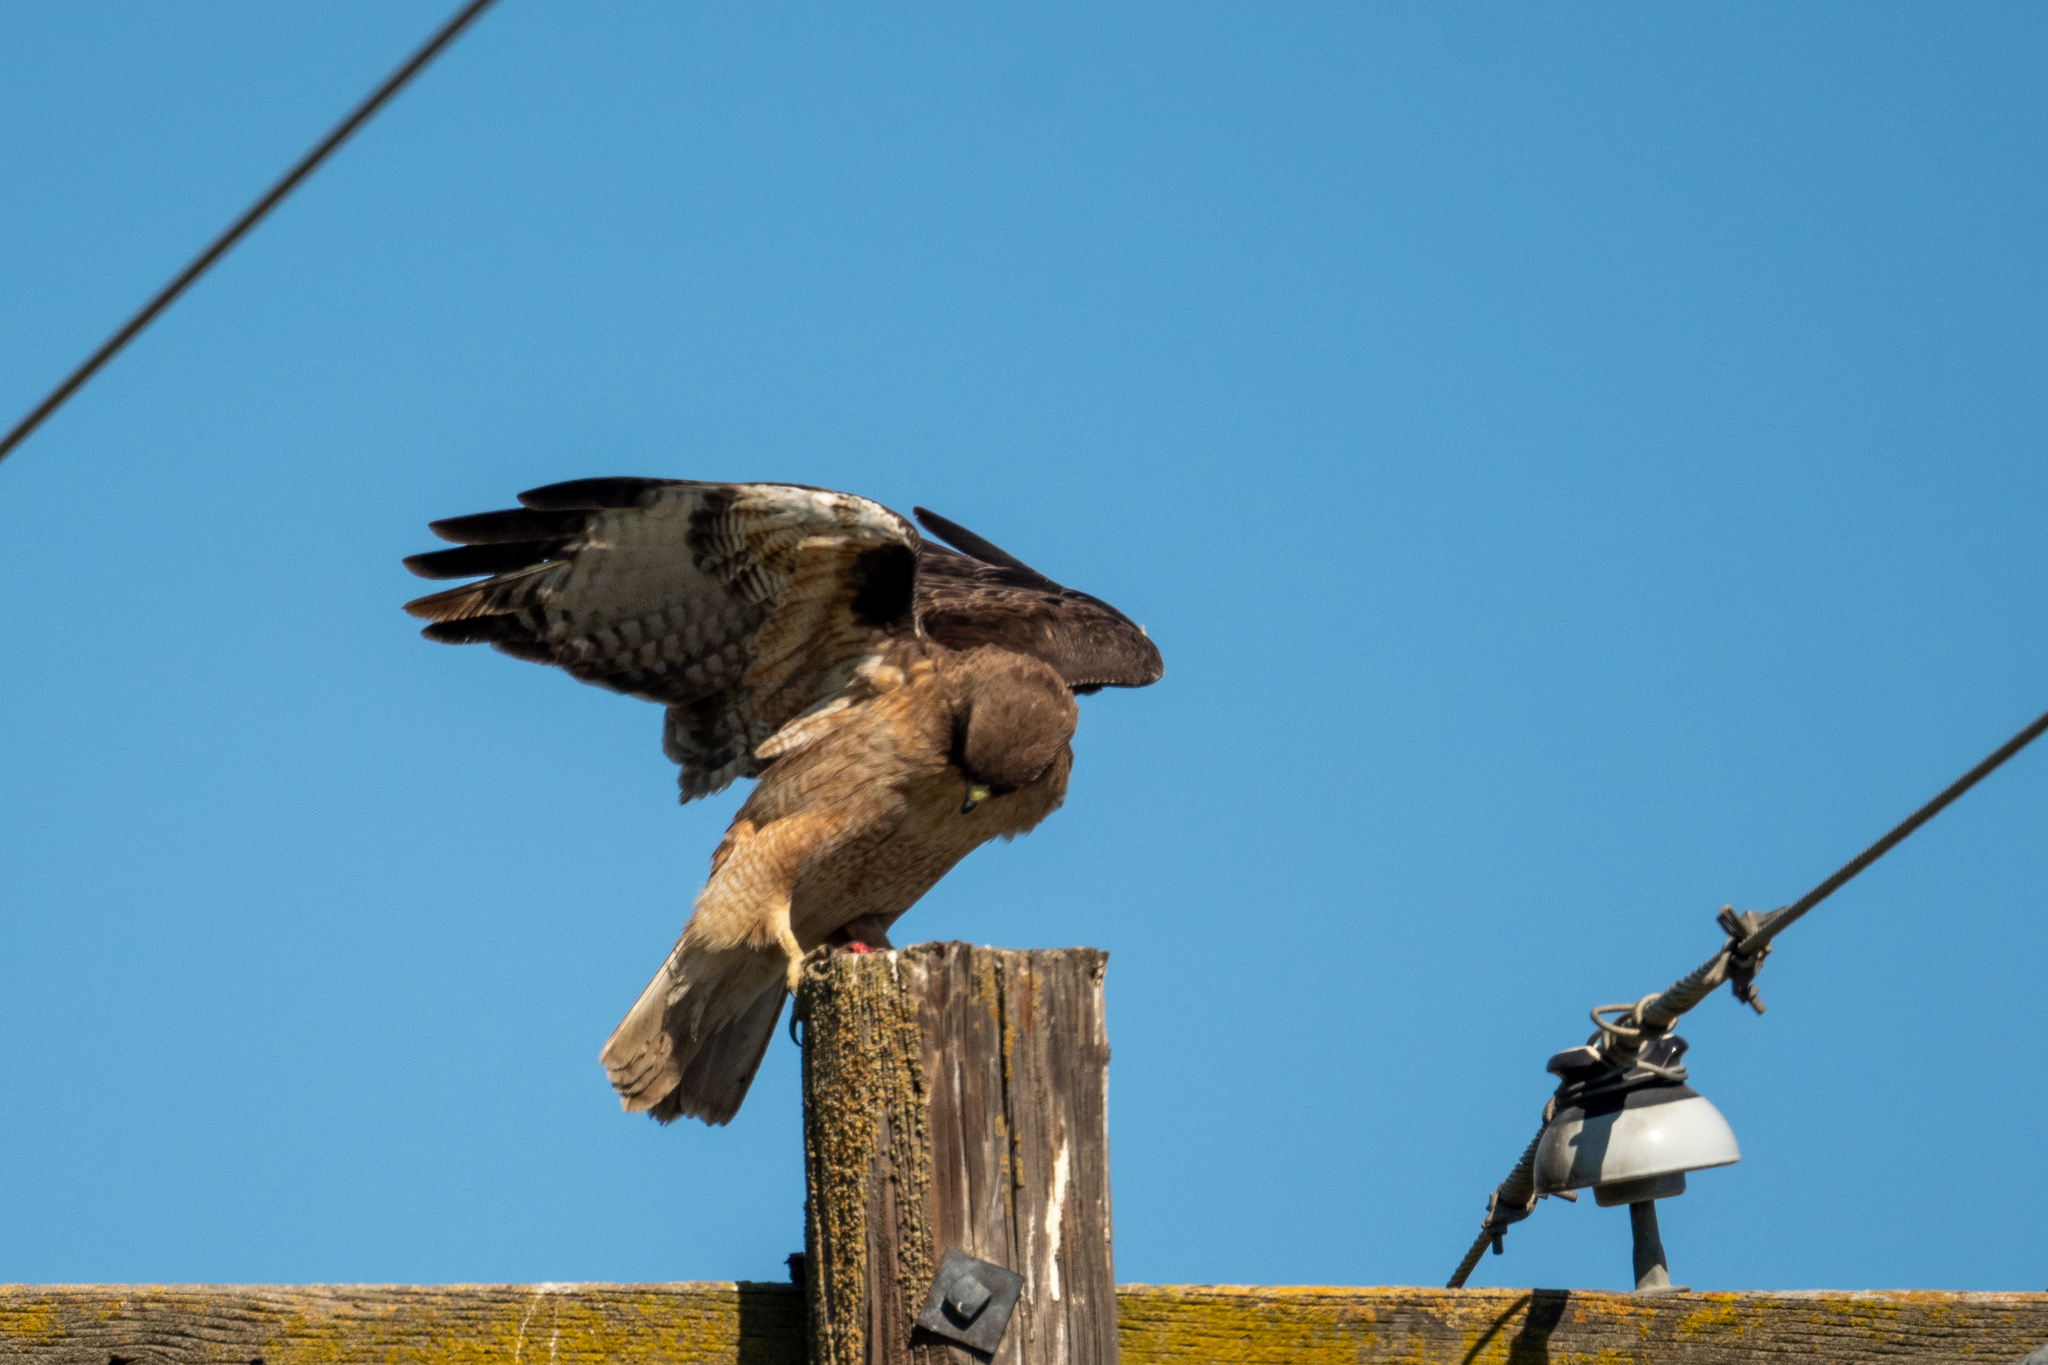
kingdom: Animalia
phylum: Chordata
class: Aves
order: Accipitriformes
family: Accipitridae
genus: Buteo
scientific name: Buteo jamaicensis
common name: Red-tailed hawk
